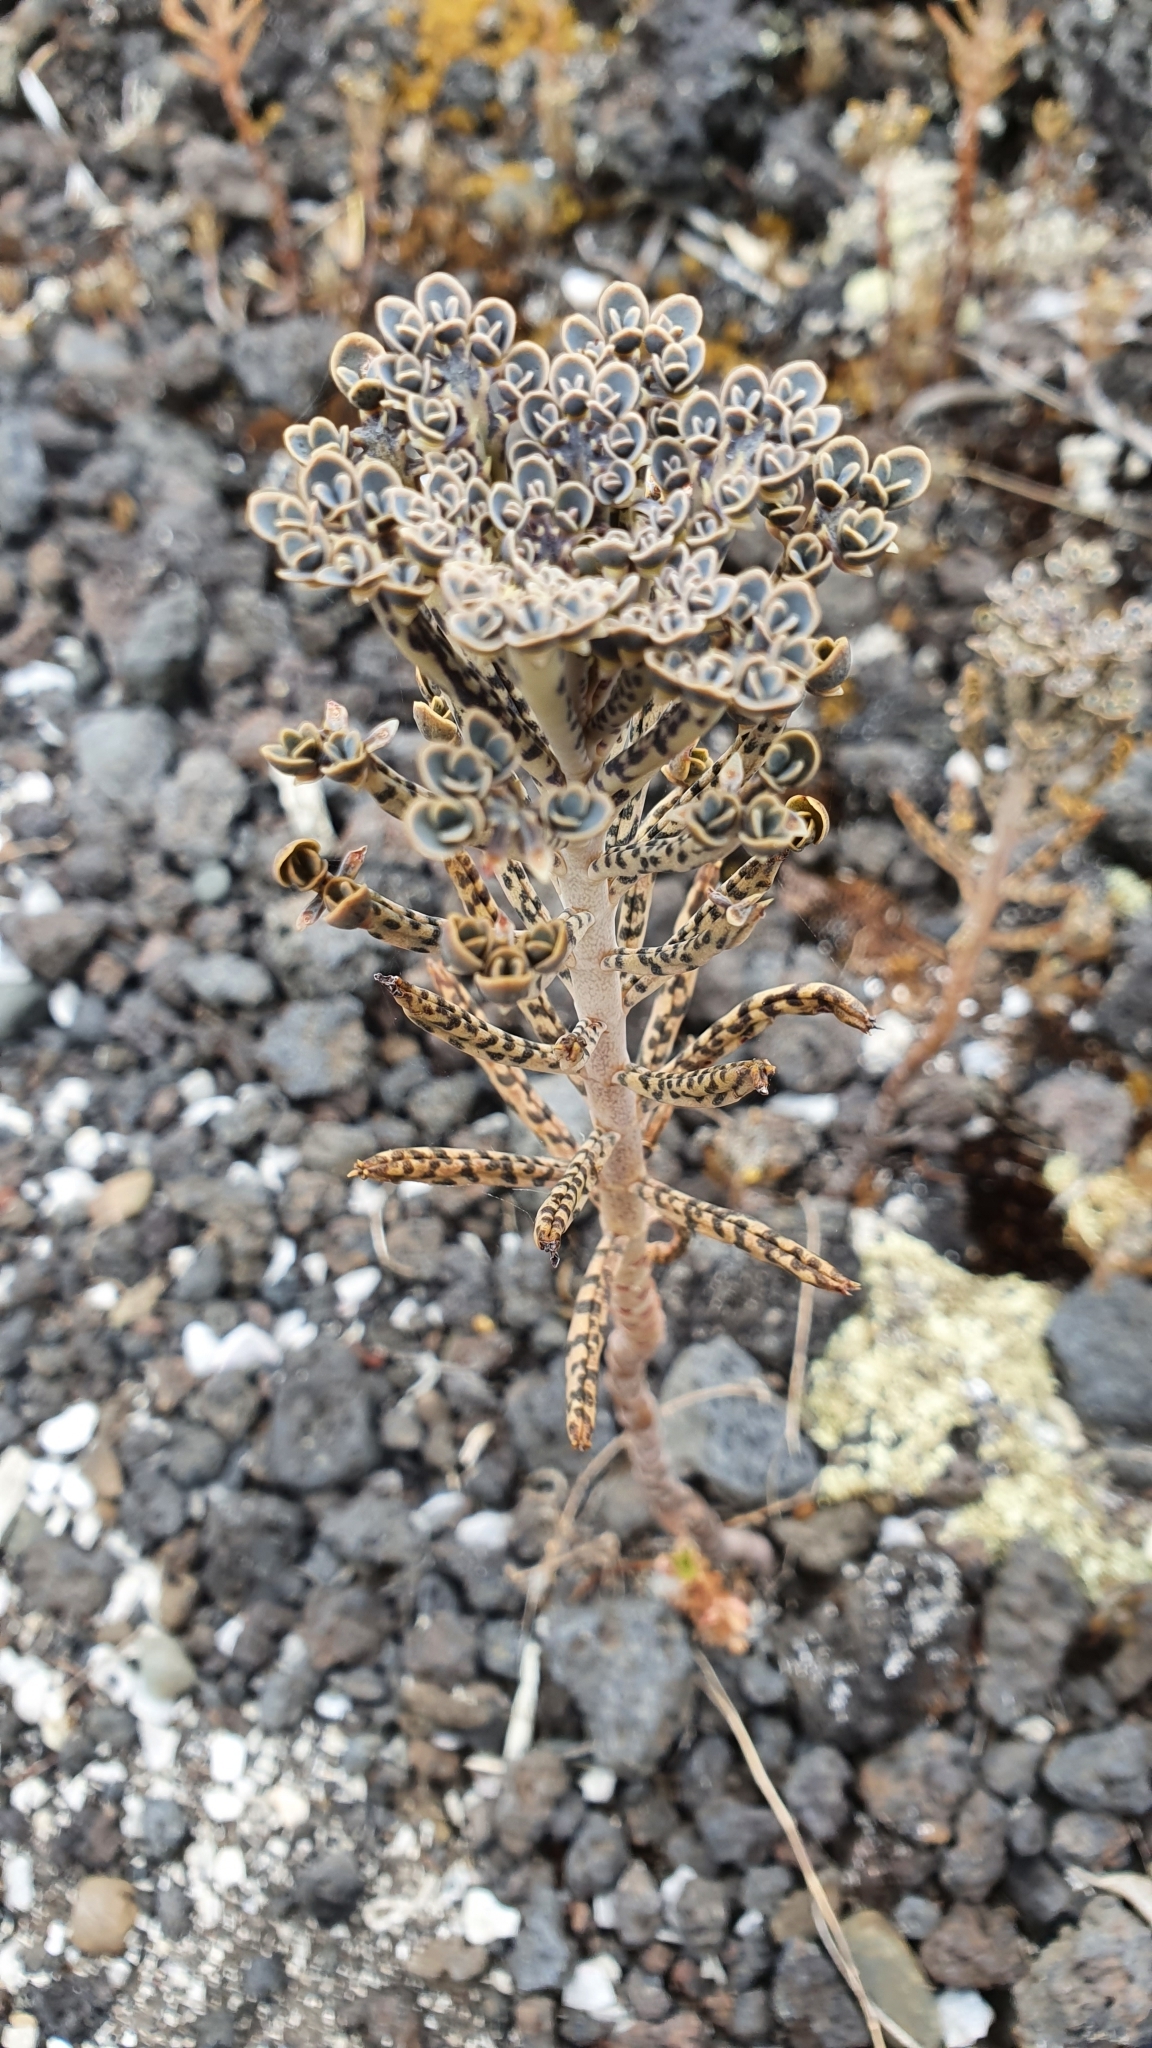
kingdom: Plantae
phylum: Tracheophyta
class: Magnoliopsida
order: Saxifragales
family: Crassulaceae
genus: Kalanchoe
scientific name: Kalanchoe delagoensis
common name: Chandelier plant
